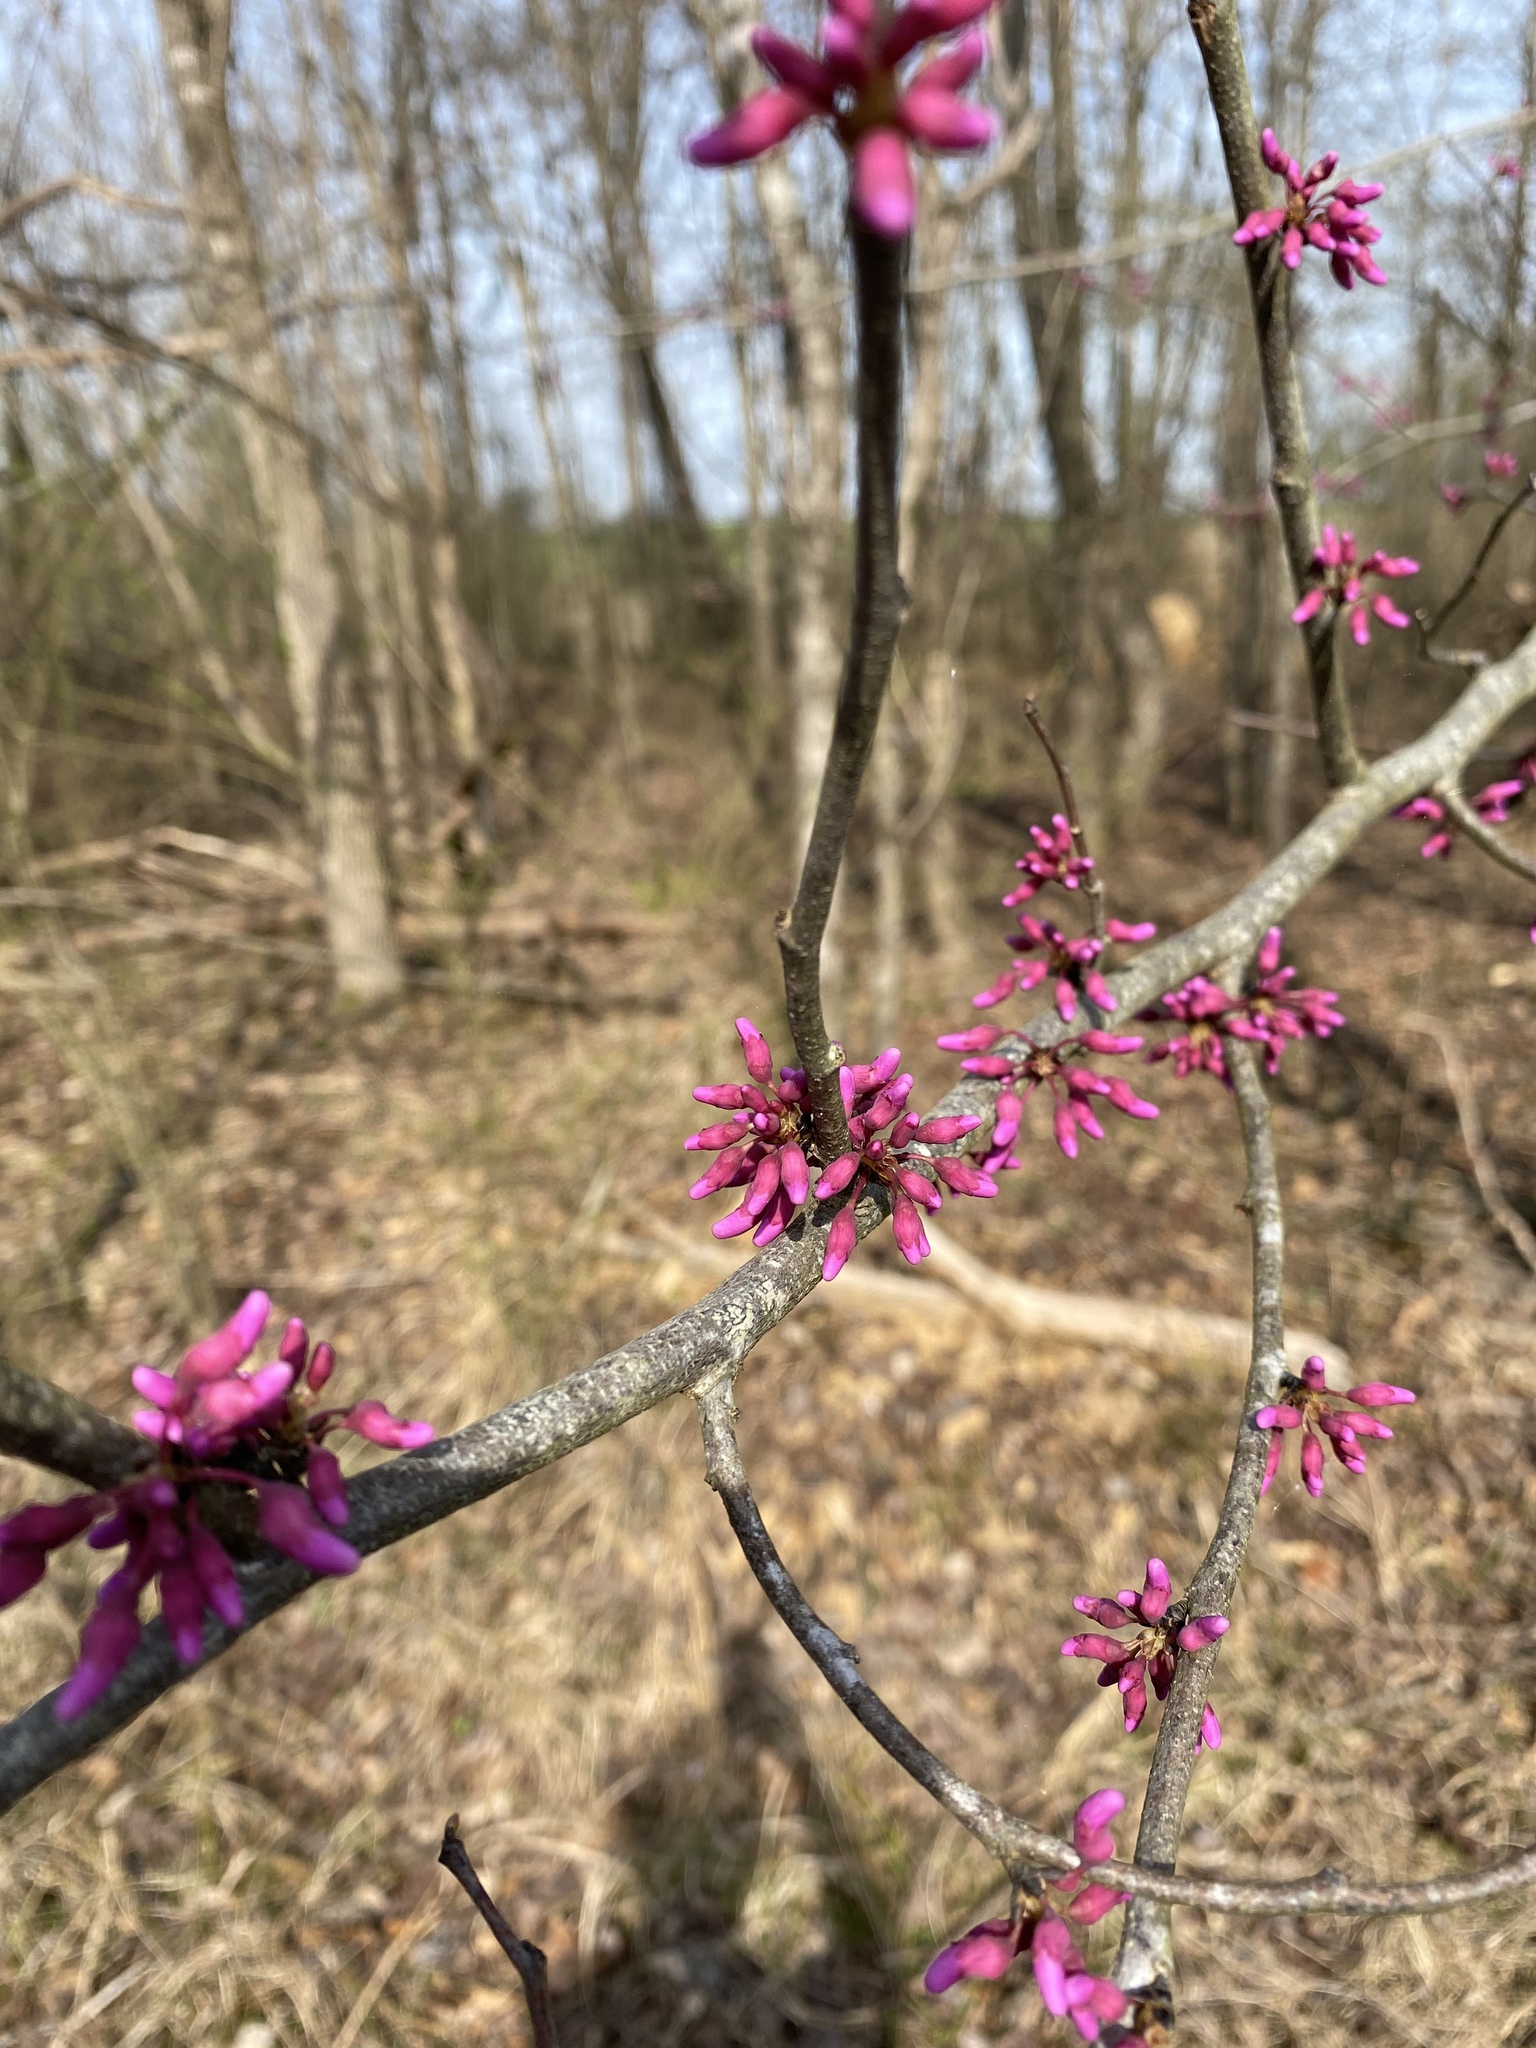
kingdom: Plantae
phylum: Tracheophyta
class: Magnoliopsida
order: Fabales
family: Fabaceae
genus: Cercis
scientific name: Cercis canadensis
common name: Eastern redbud
